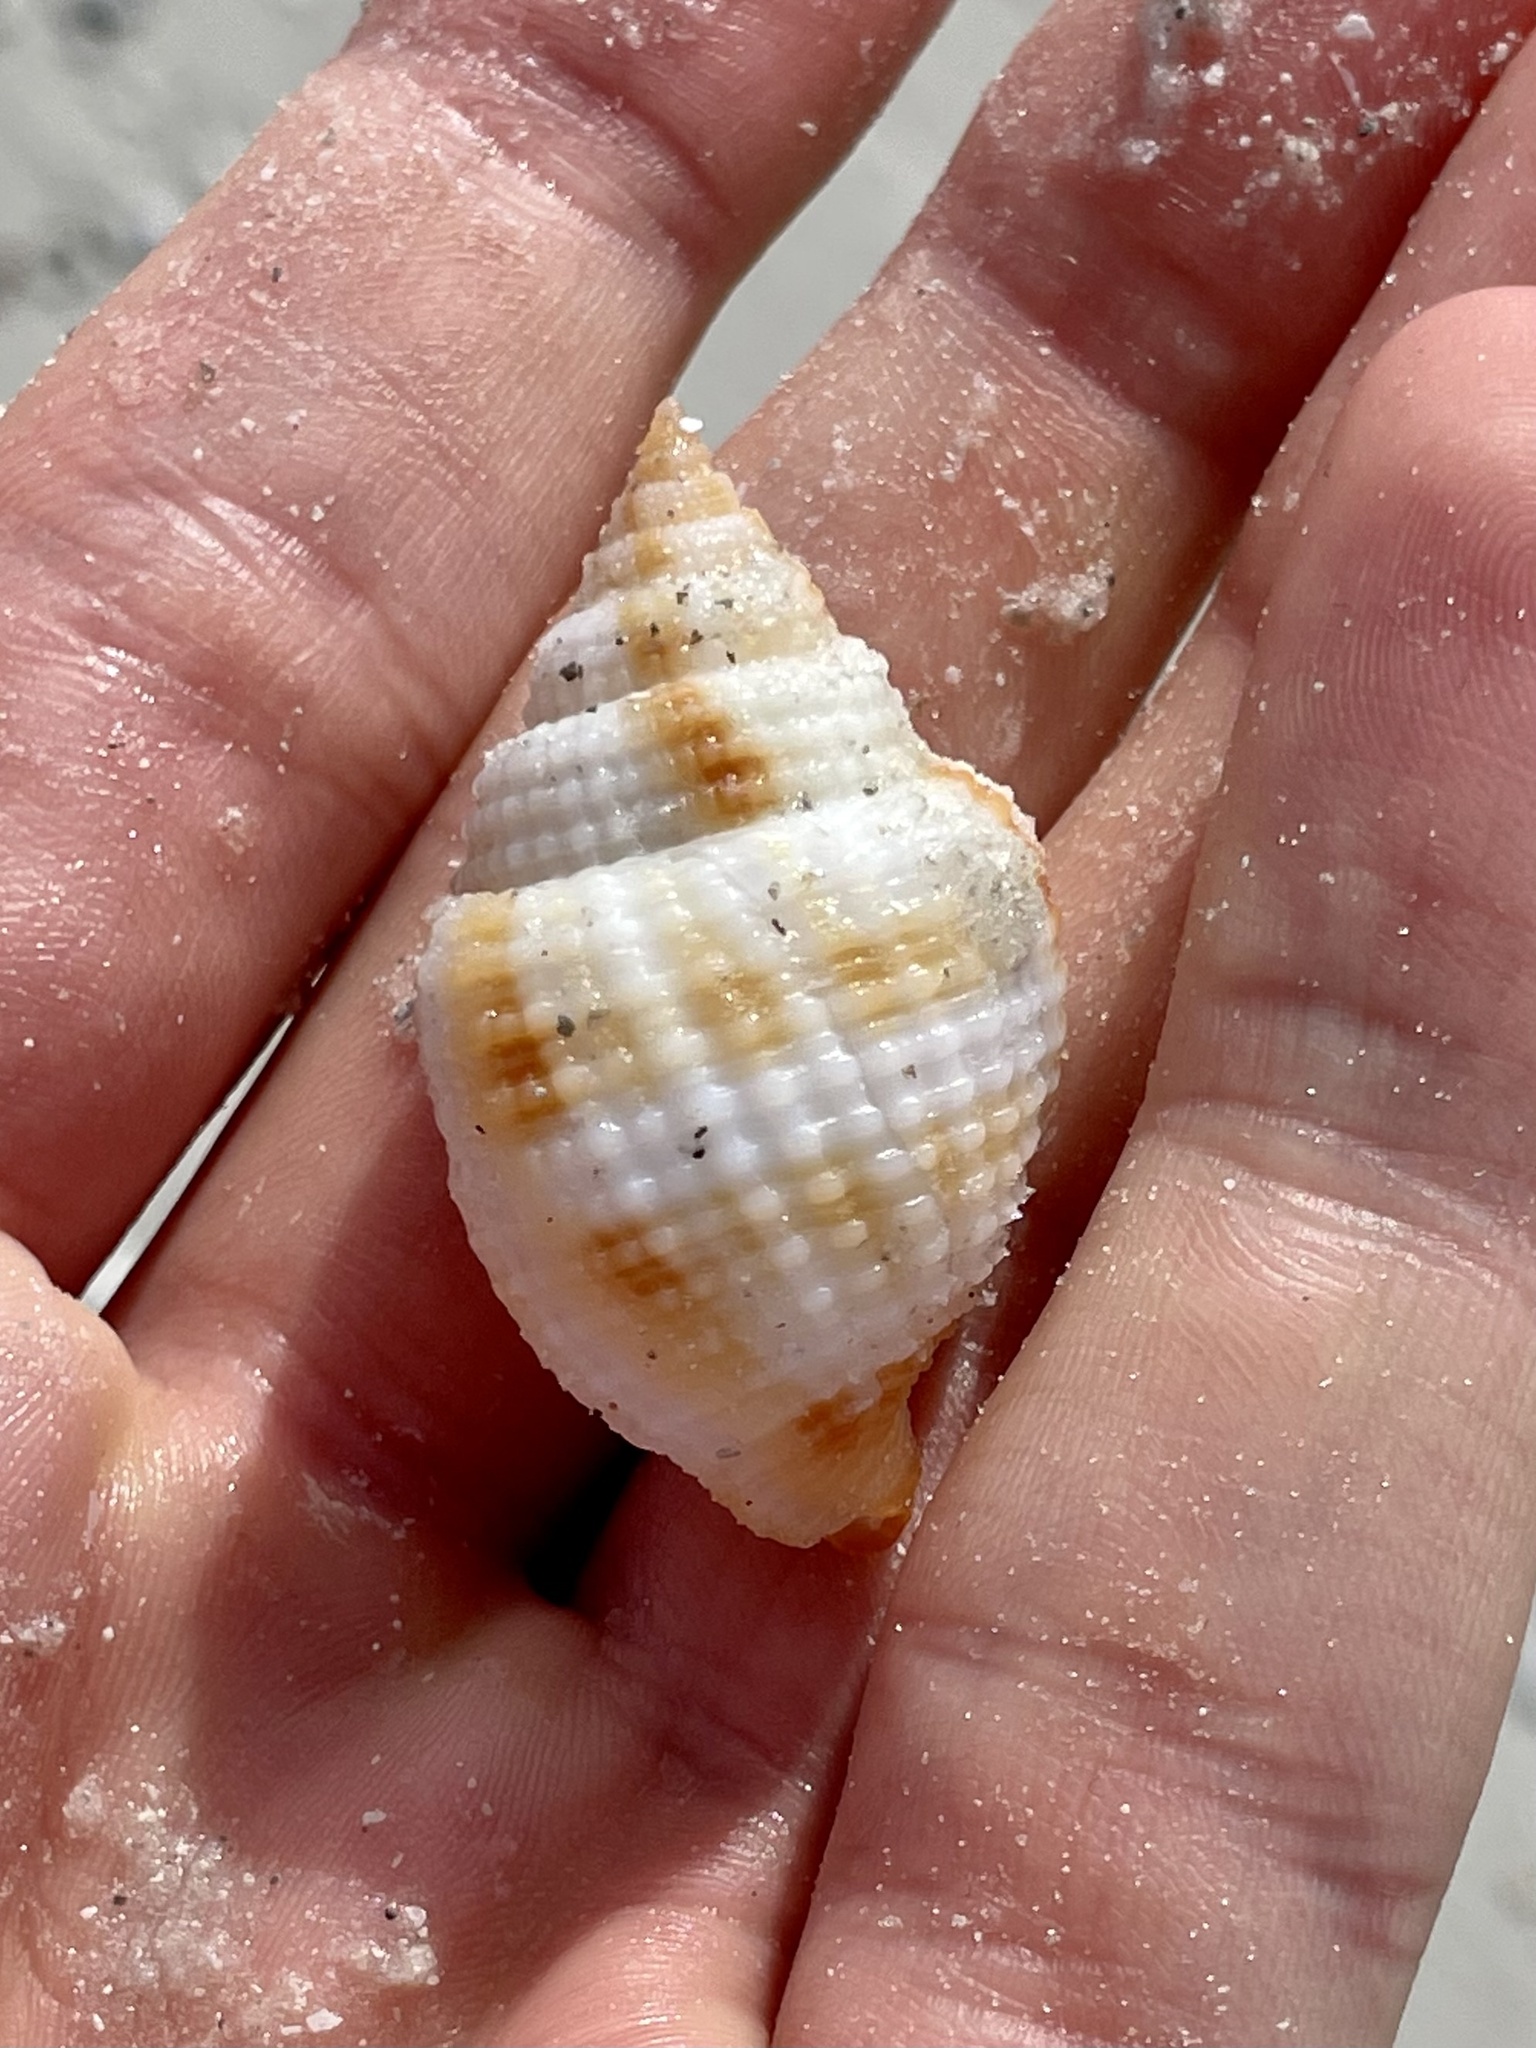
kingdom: Animalia
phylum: Mollusca
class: Gastropoda
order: Neogastropoda
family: Cancellariidae
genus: Cancellaria
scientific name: Cancellaria reticulata
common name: Common nutmeg
